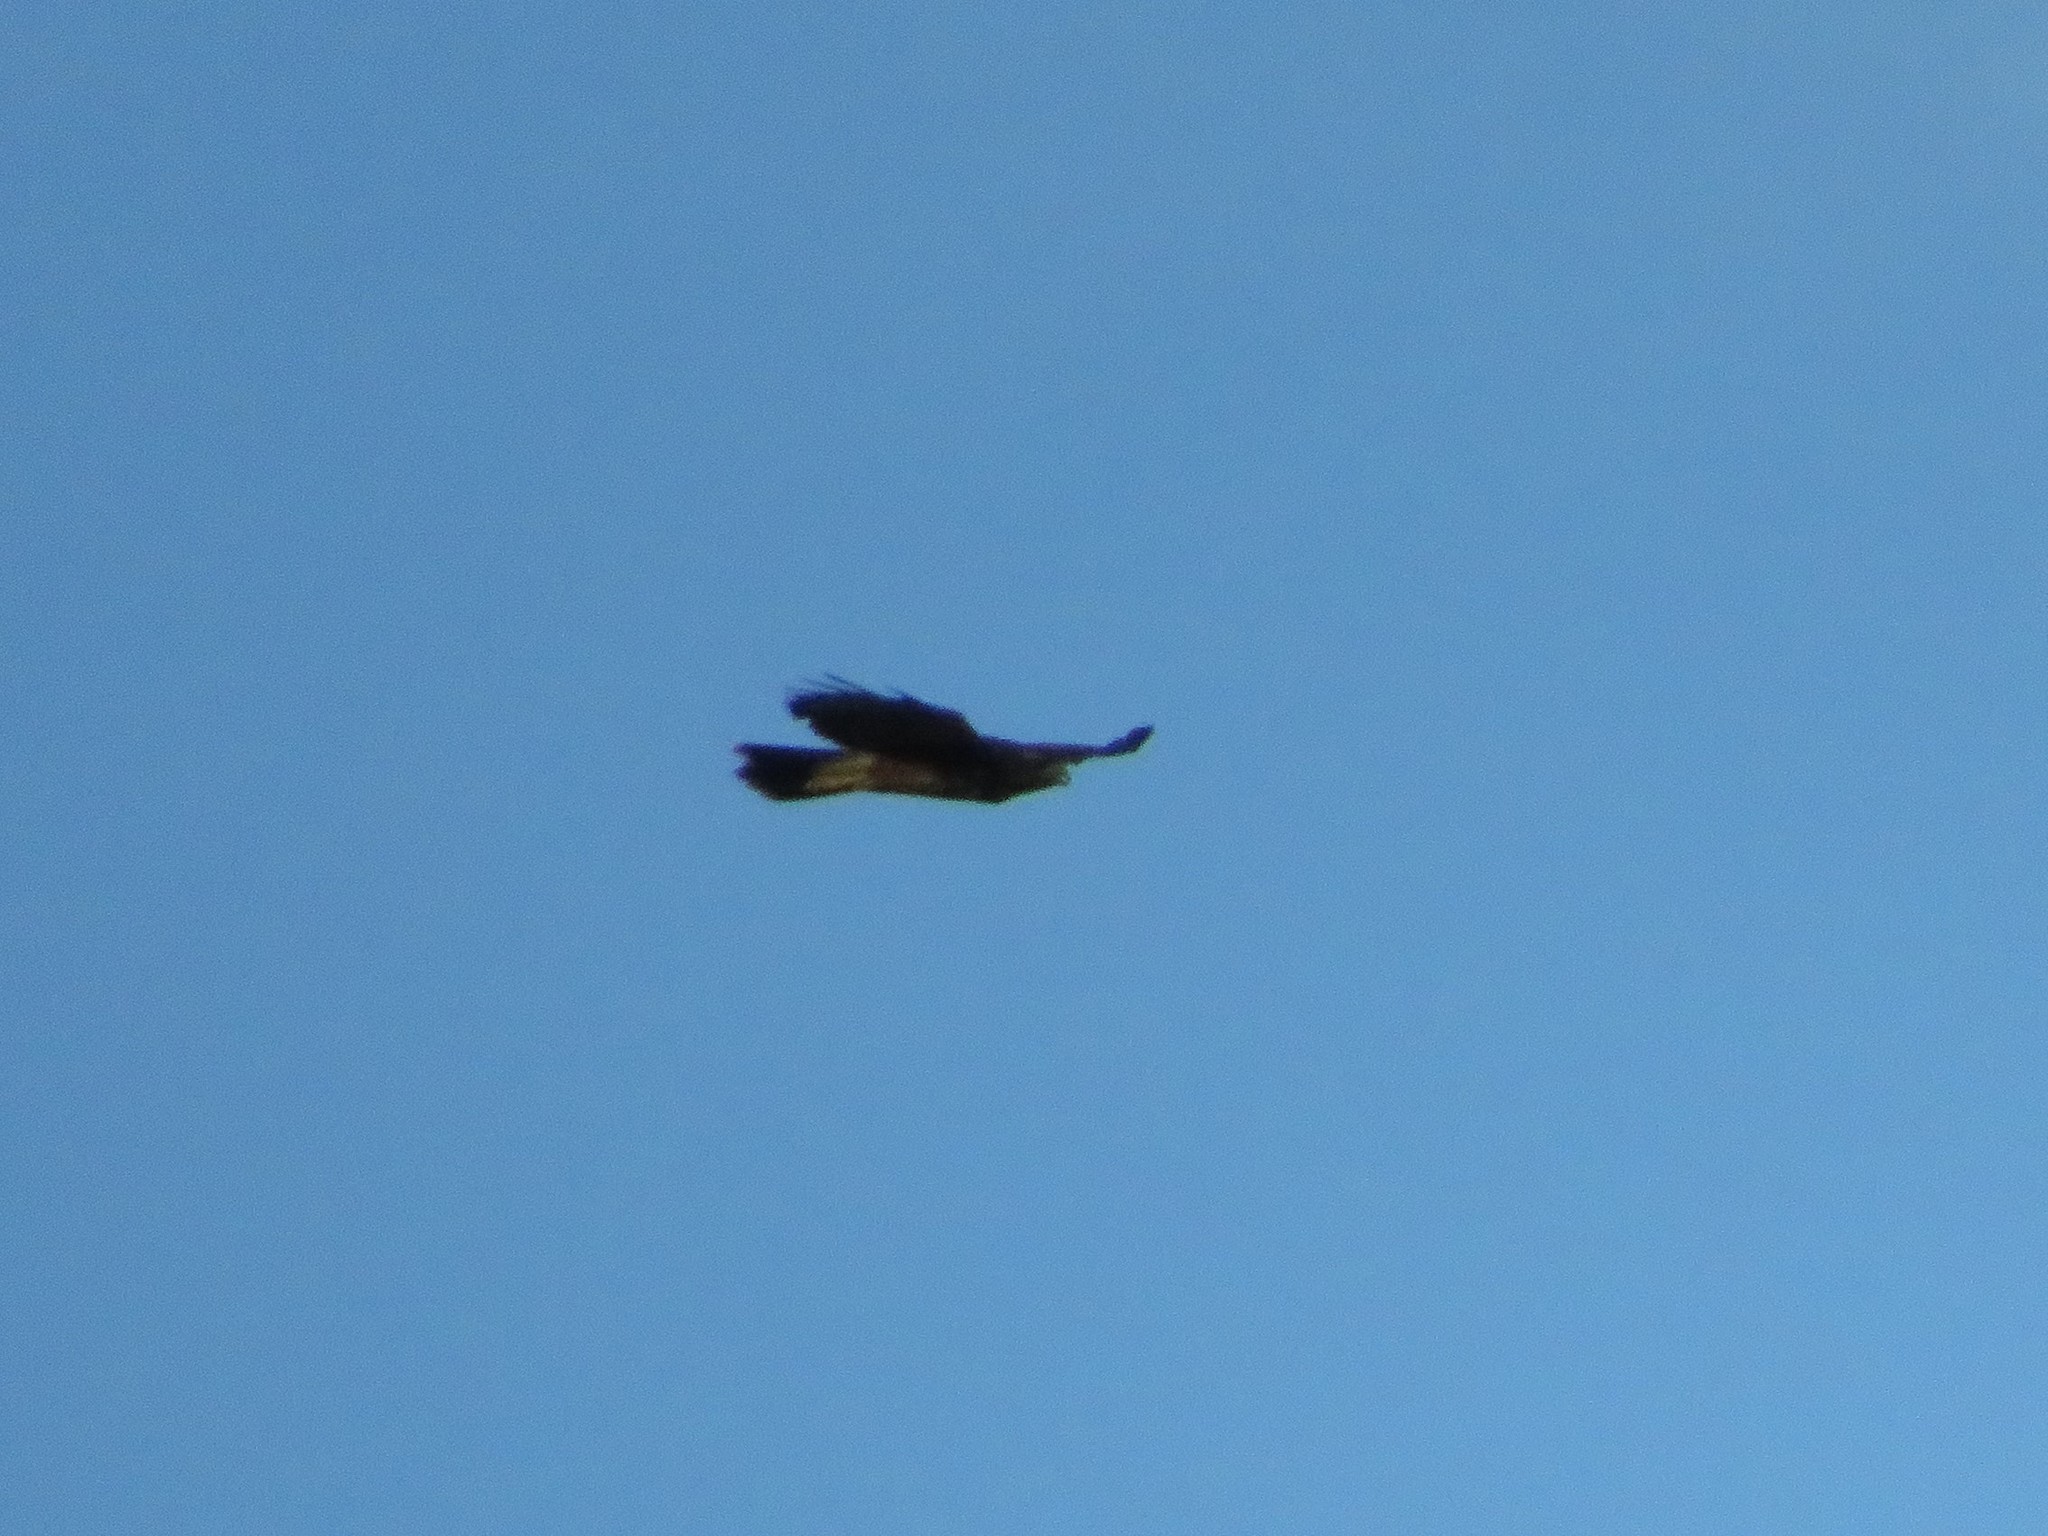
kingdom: Animalia
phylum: Chordata
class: Aves
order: Accipitriformes
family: Accipitridae
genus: Parabuteo
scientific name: Parabuteo unicinctus
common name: Harris's hawk
